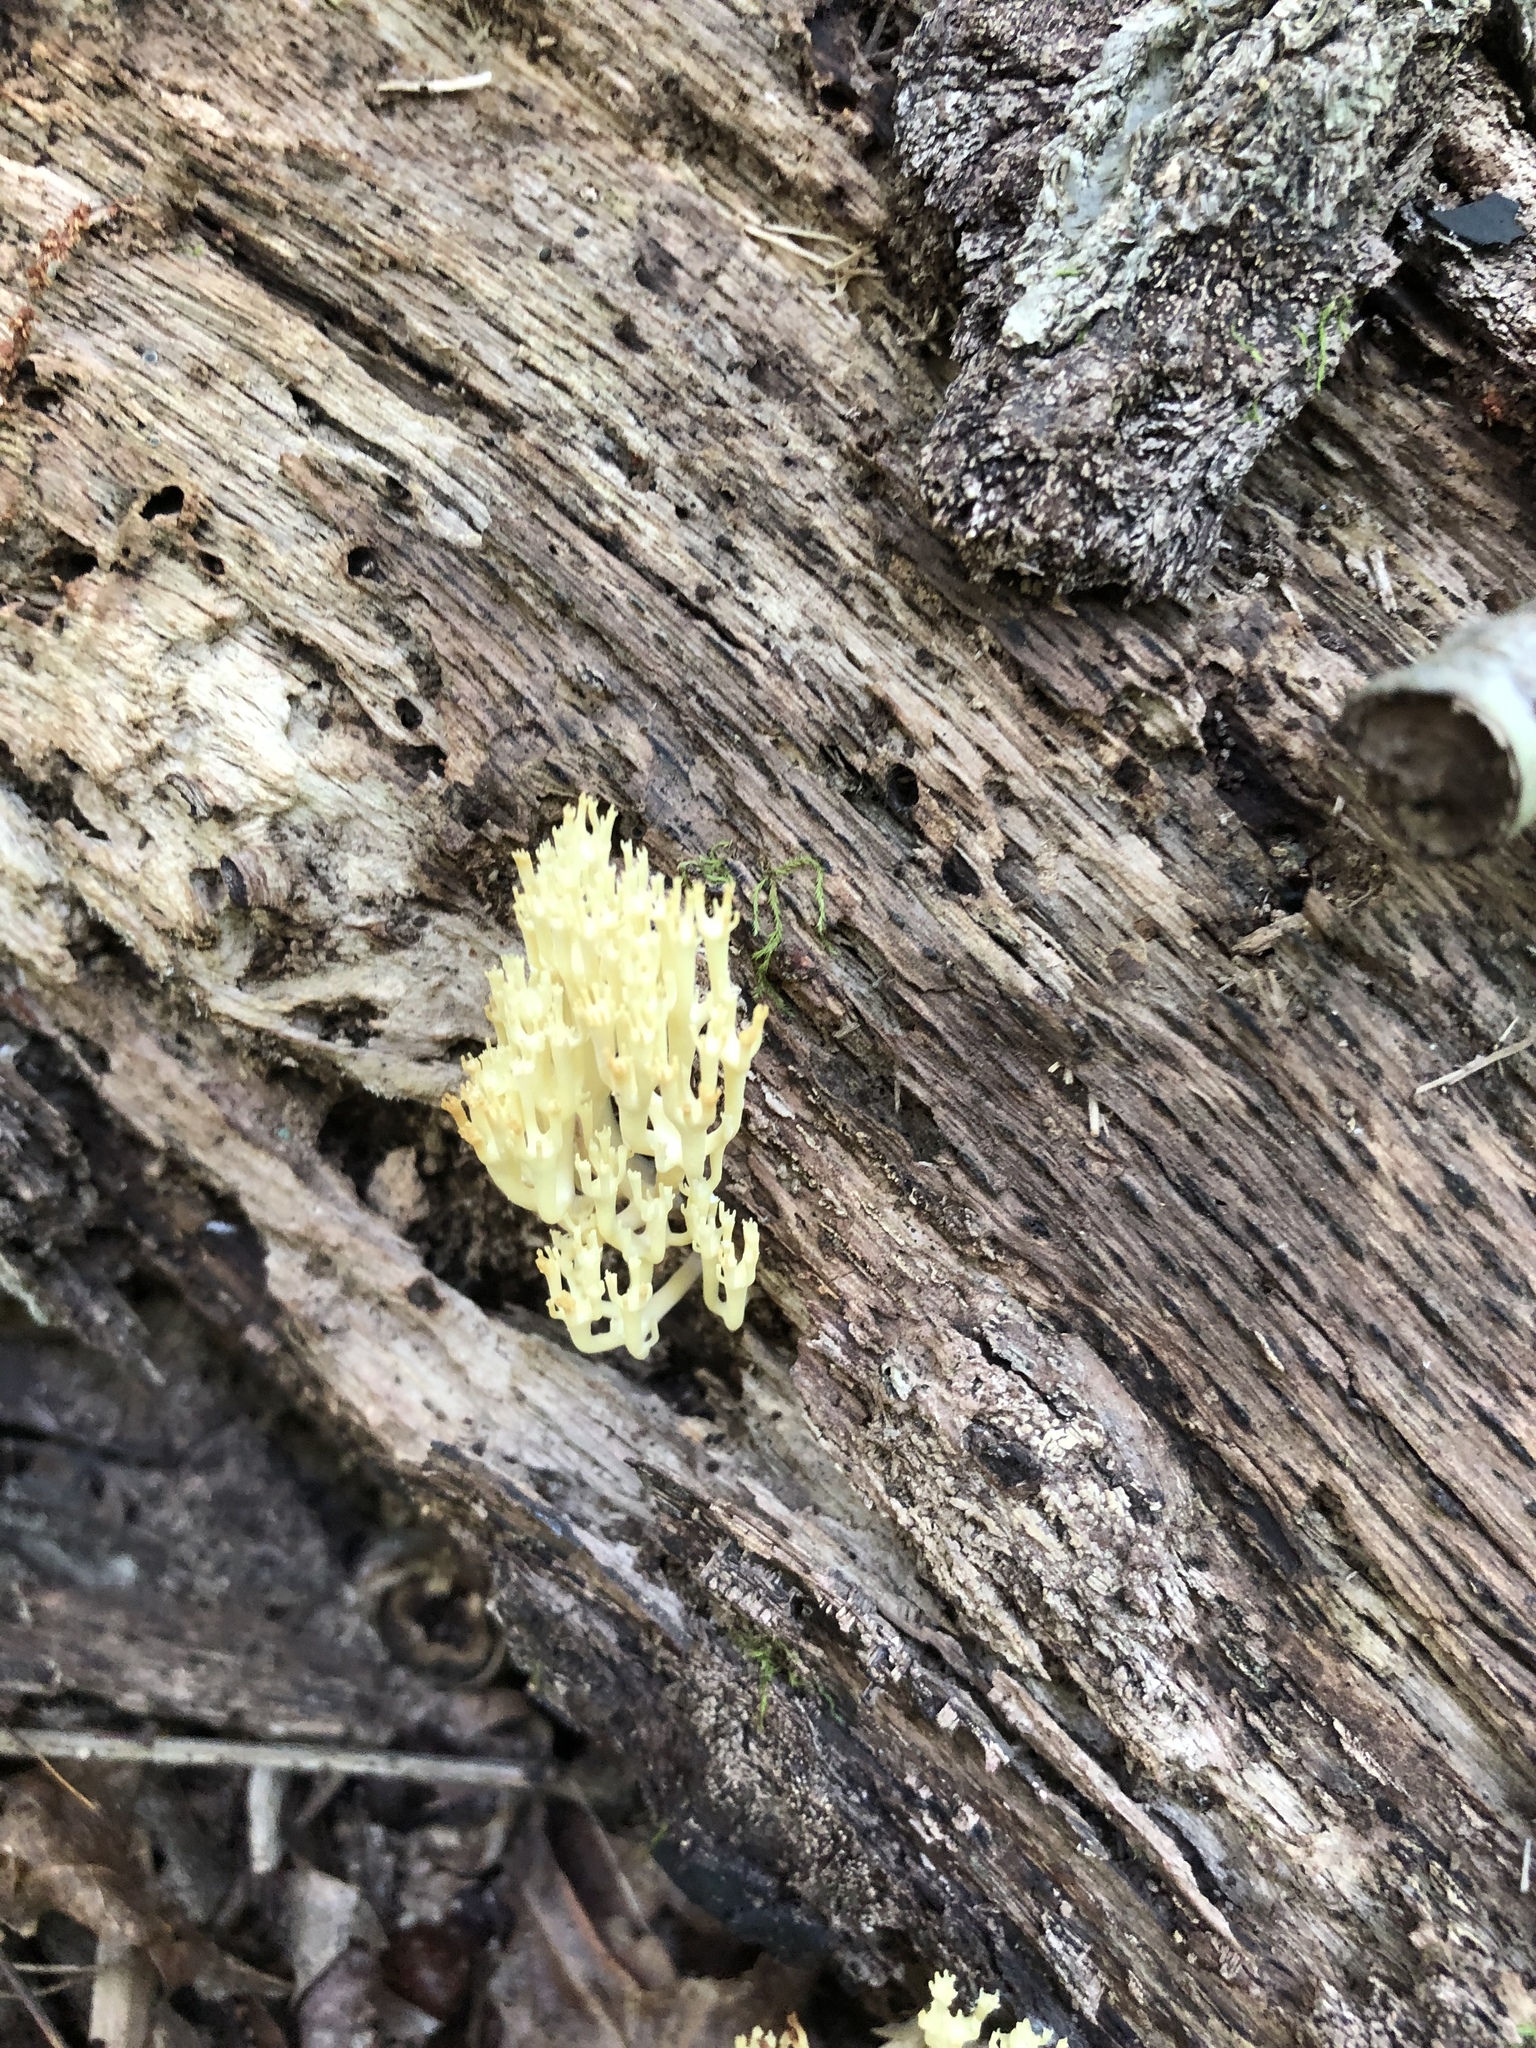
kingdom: Fungi
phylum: Basidiomycota
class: Agaricomycetes
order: Russulales
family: Auriscalpiaceae
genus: Artomyces
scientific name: Artomyces pyxidatus
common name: Crown-tipped coral fungus
